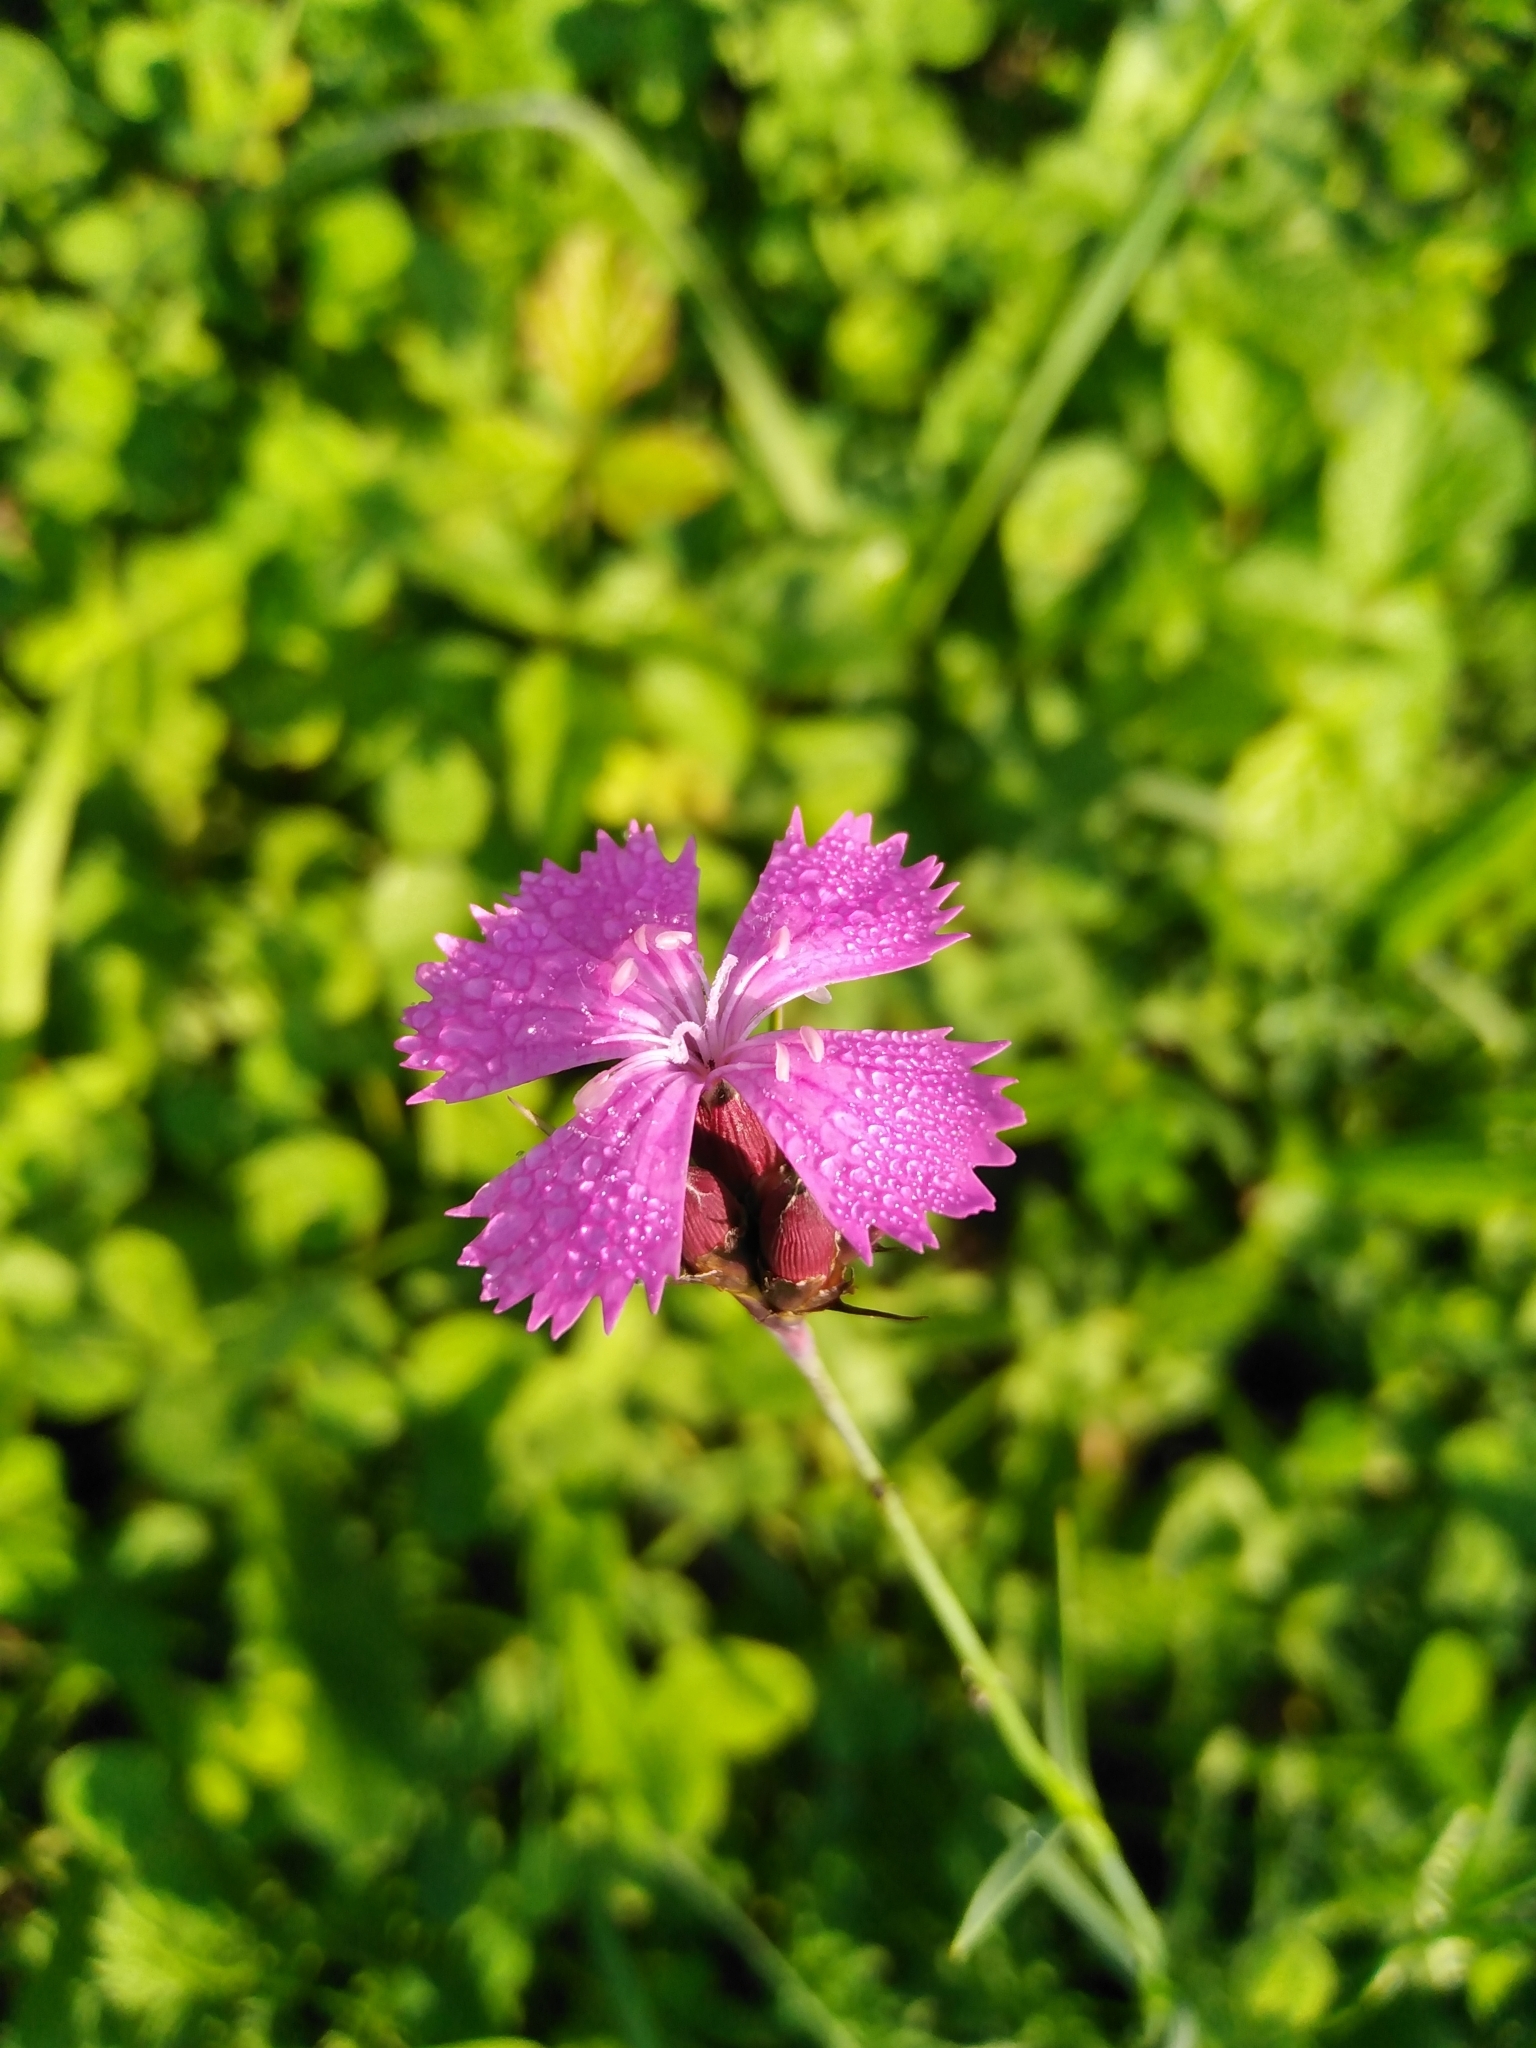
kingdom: Plantae
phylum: Tracheophyta
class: Magnoliopsida
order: Caryophyllales
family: Caryophyllaceae
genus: Dianthus
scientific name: Dianthus carthusianorum
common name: Carthusian pink
